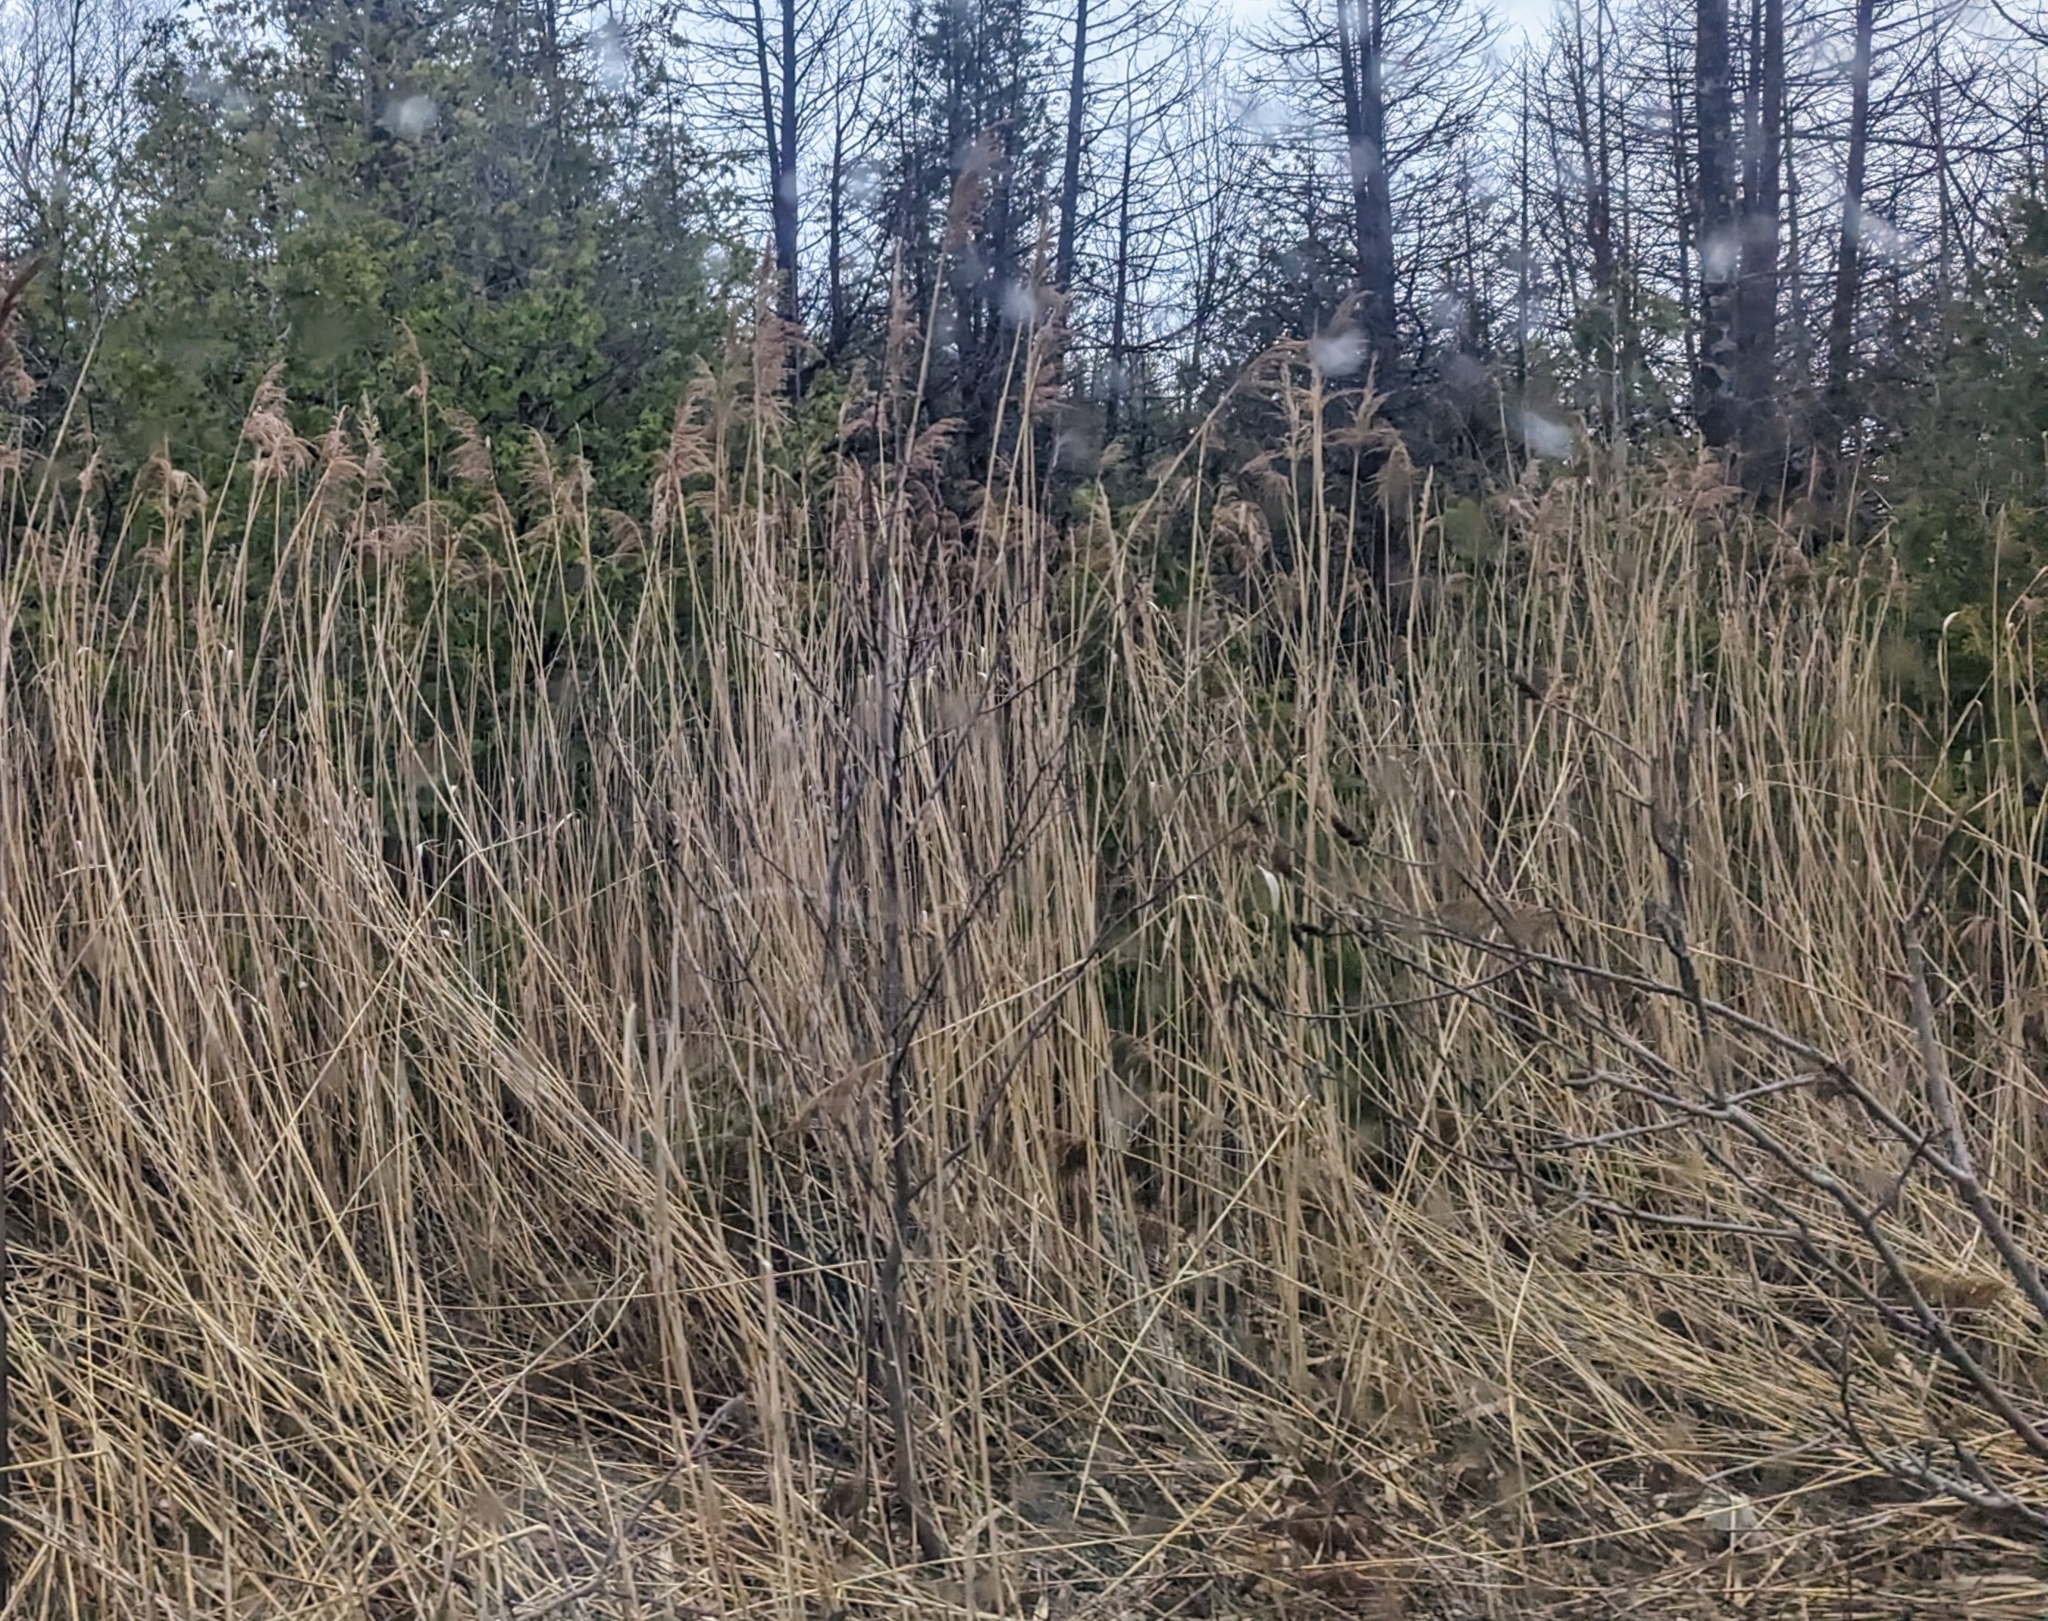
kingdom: Plantae
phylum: Tracheophyta
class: Liliopsida
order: Poales
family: Poaceae
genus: Phragmites
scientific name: Phragmites australis
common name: Common reed
